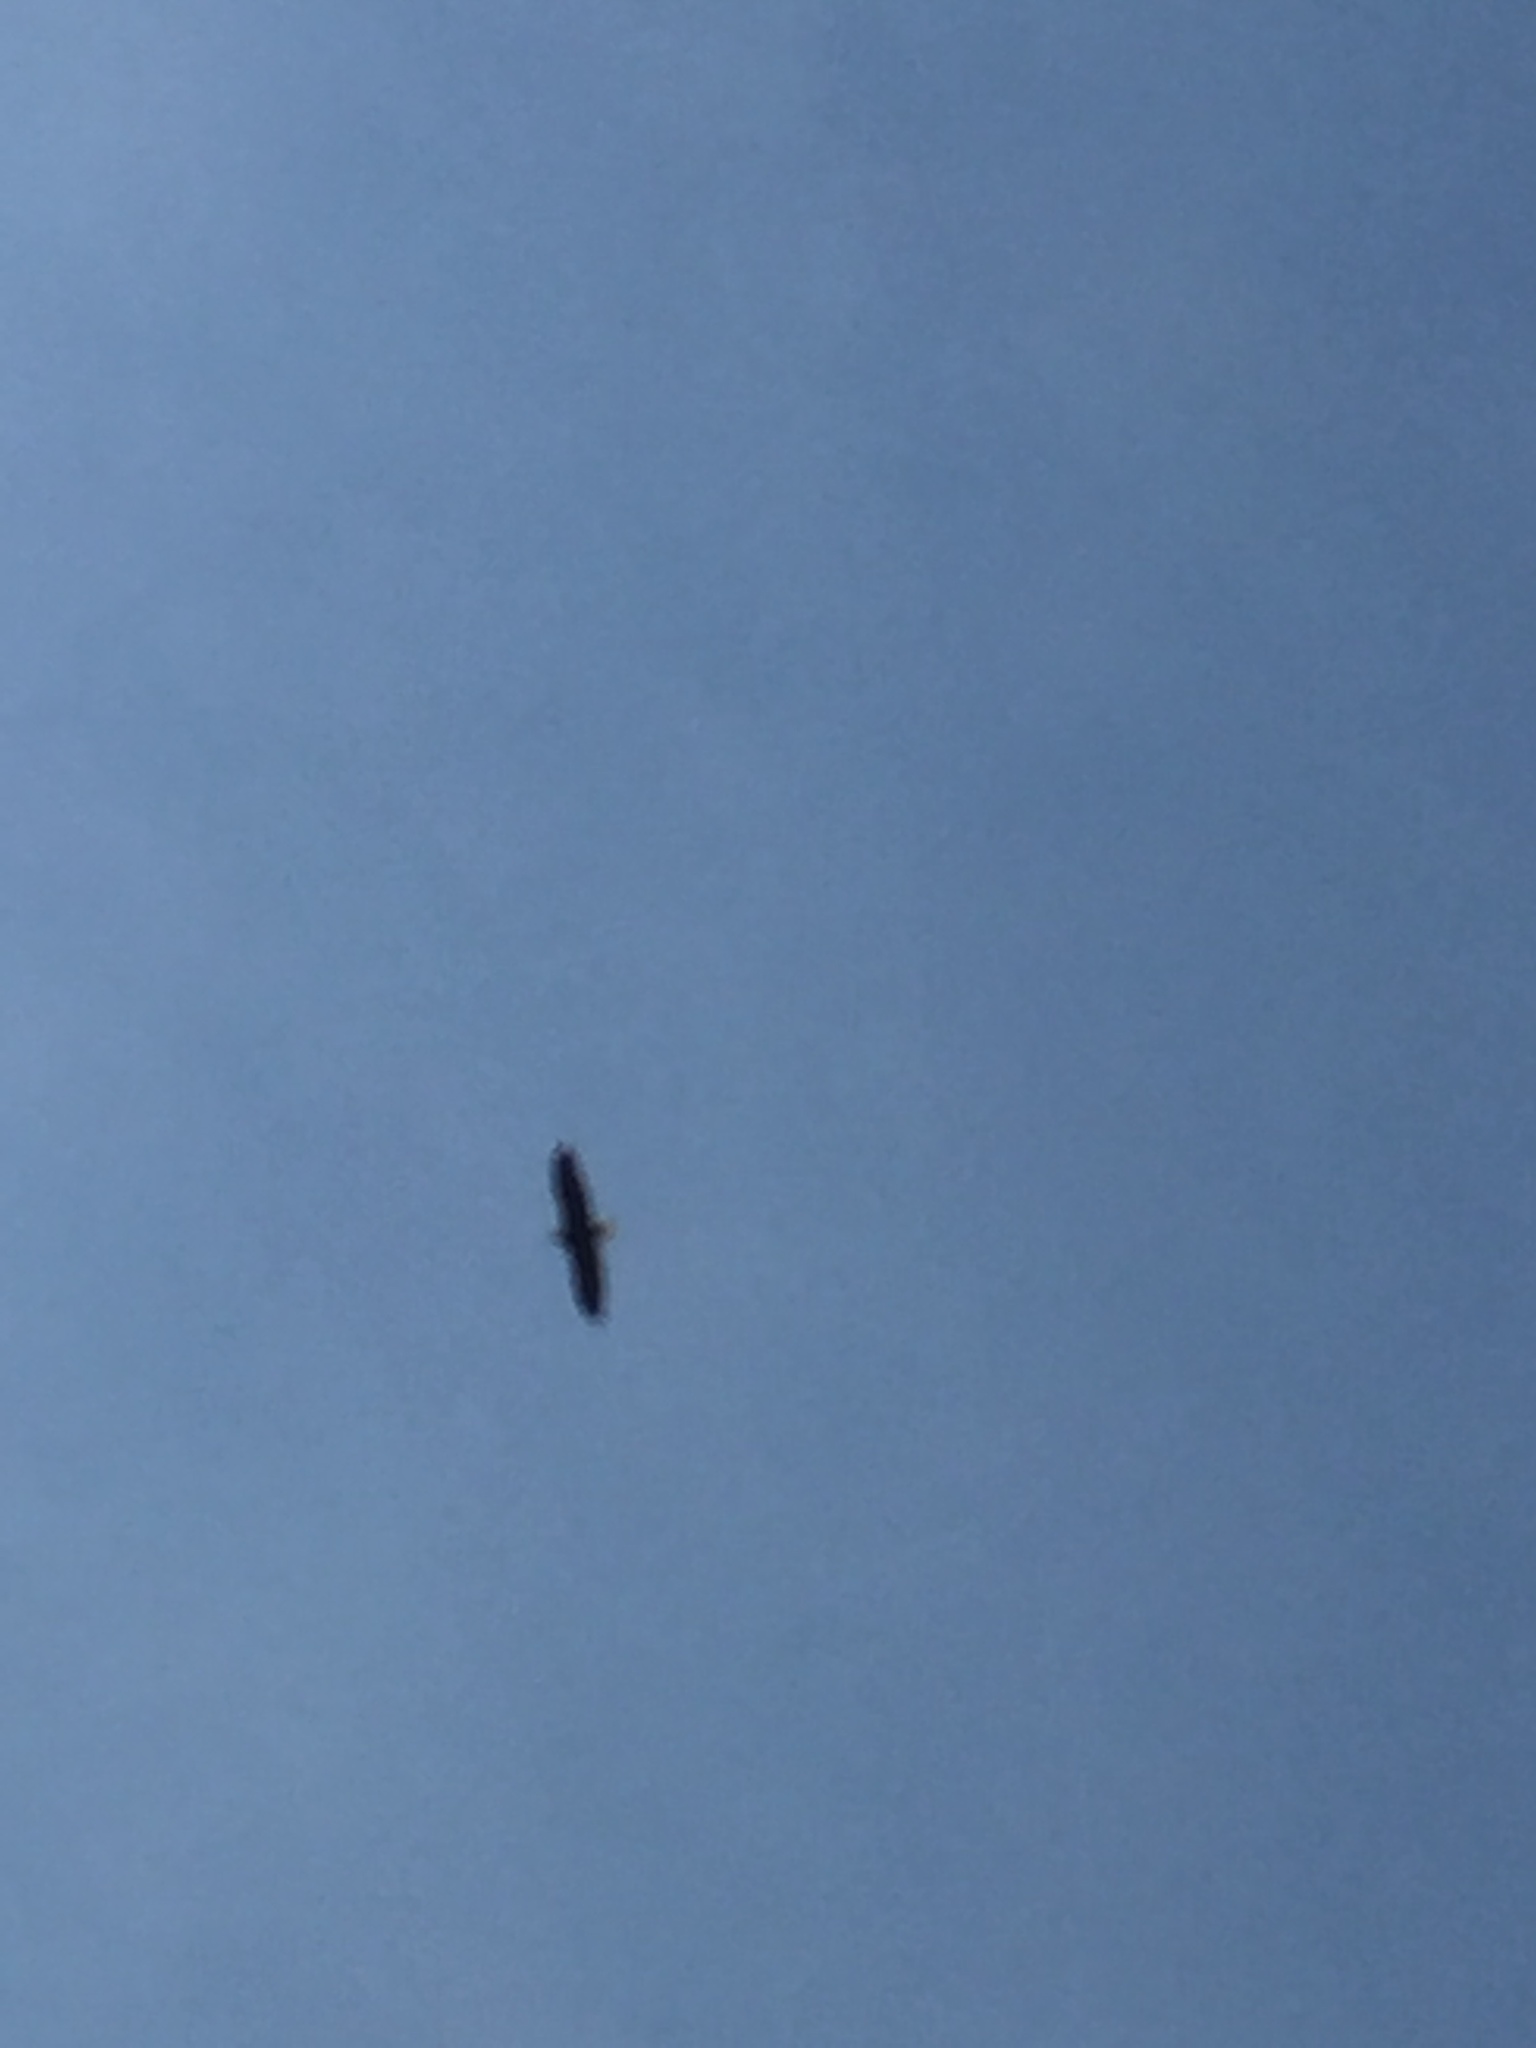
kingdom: Animalia
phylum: Chordata
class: Aves
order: Accipitriformes
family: Accipitridae
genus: Haliaeetus
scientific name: Haliaeetus leucocephalus
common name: Bald eagle
